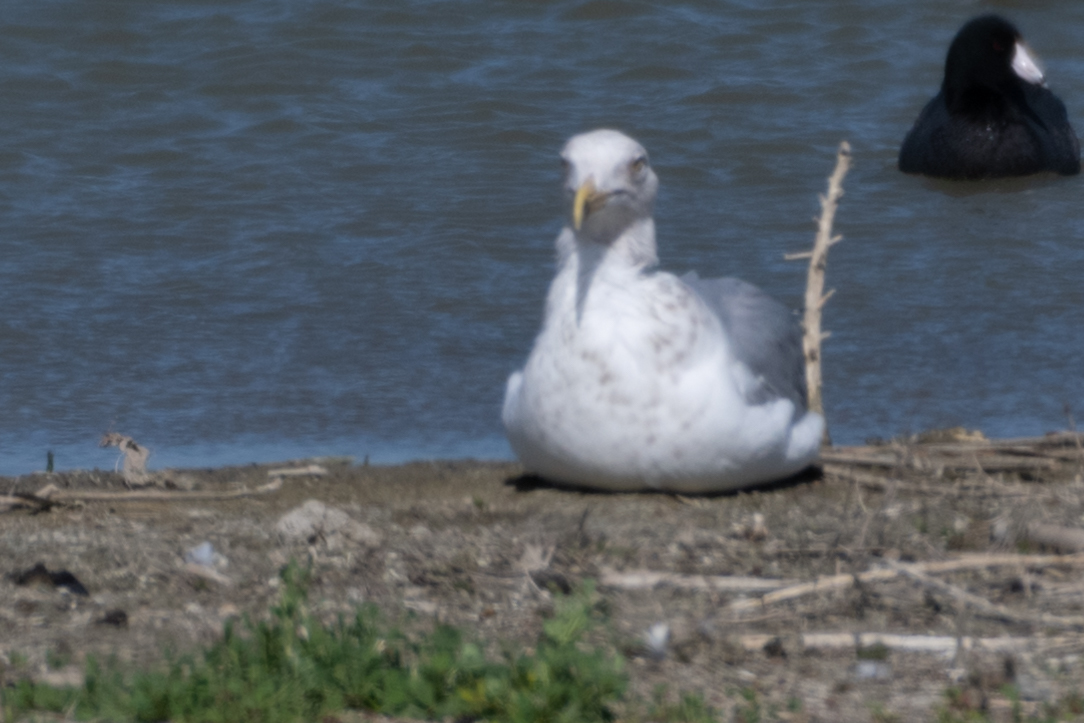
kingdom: Animalia
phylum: Chordata
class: Aves
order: Charadriiformes
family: Laridae
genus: Larus
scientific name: Larus argentatus
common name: Herring gull
